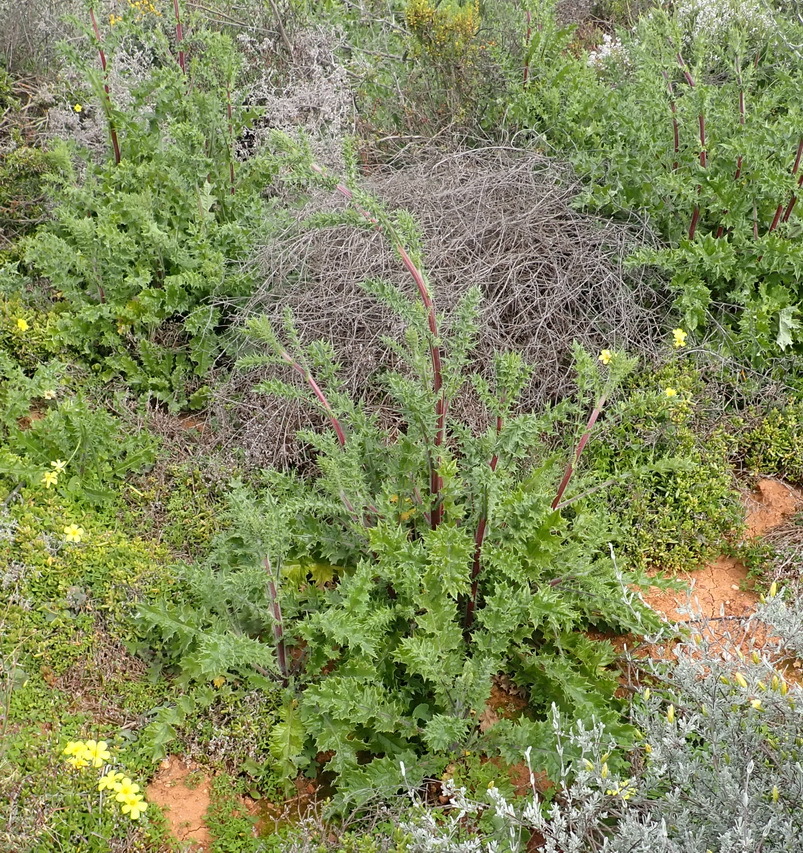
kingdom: Plantae
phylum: Tracheophyta
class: Magnoliopsida
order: Asterales
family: Asteraceae
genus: Berkheya
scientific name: Berkheya onobromoides
